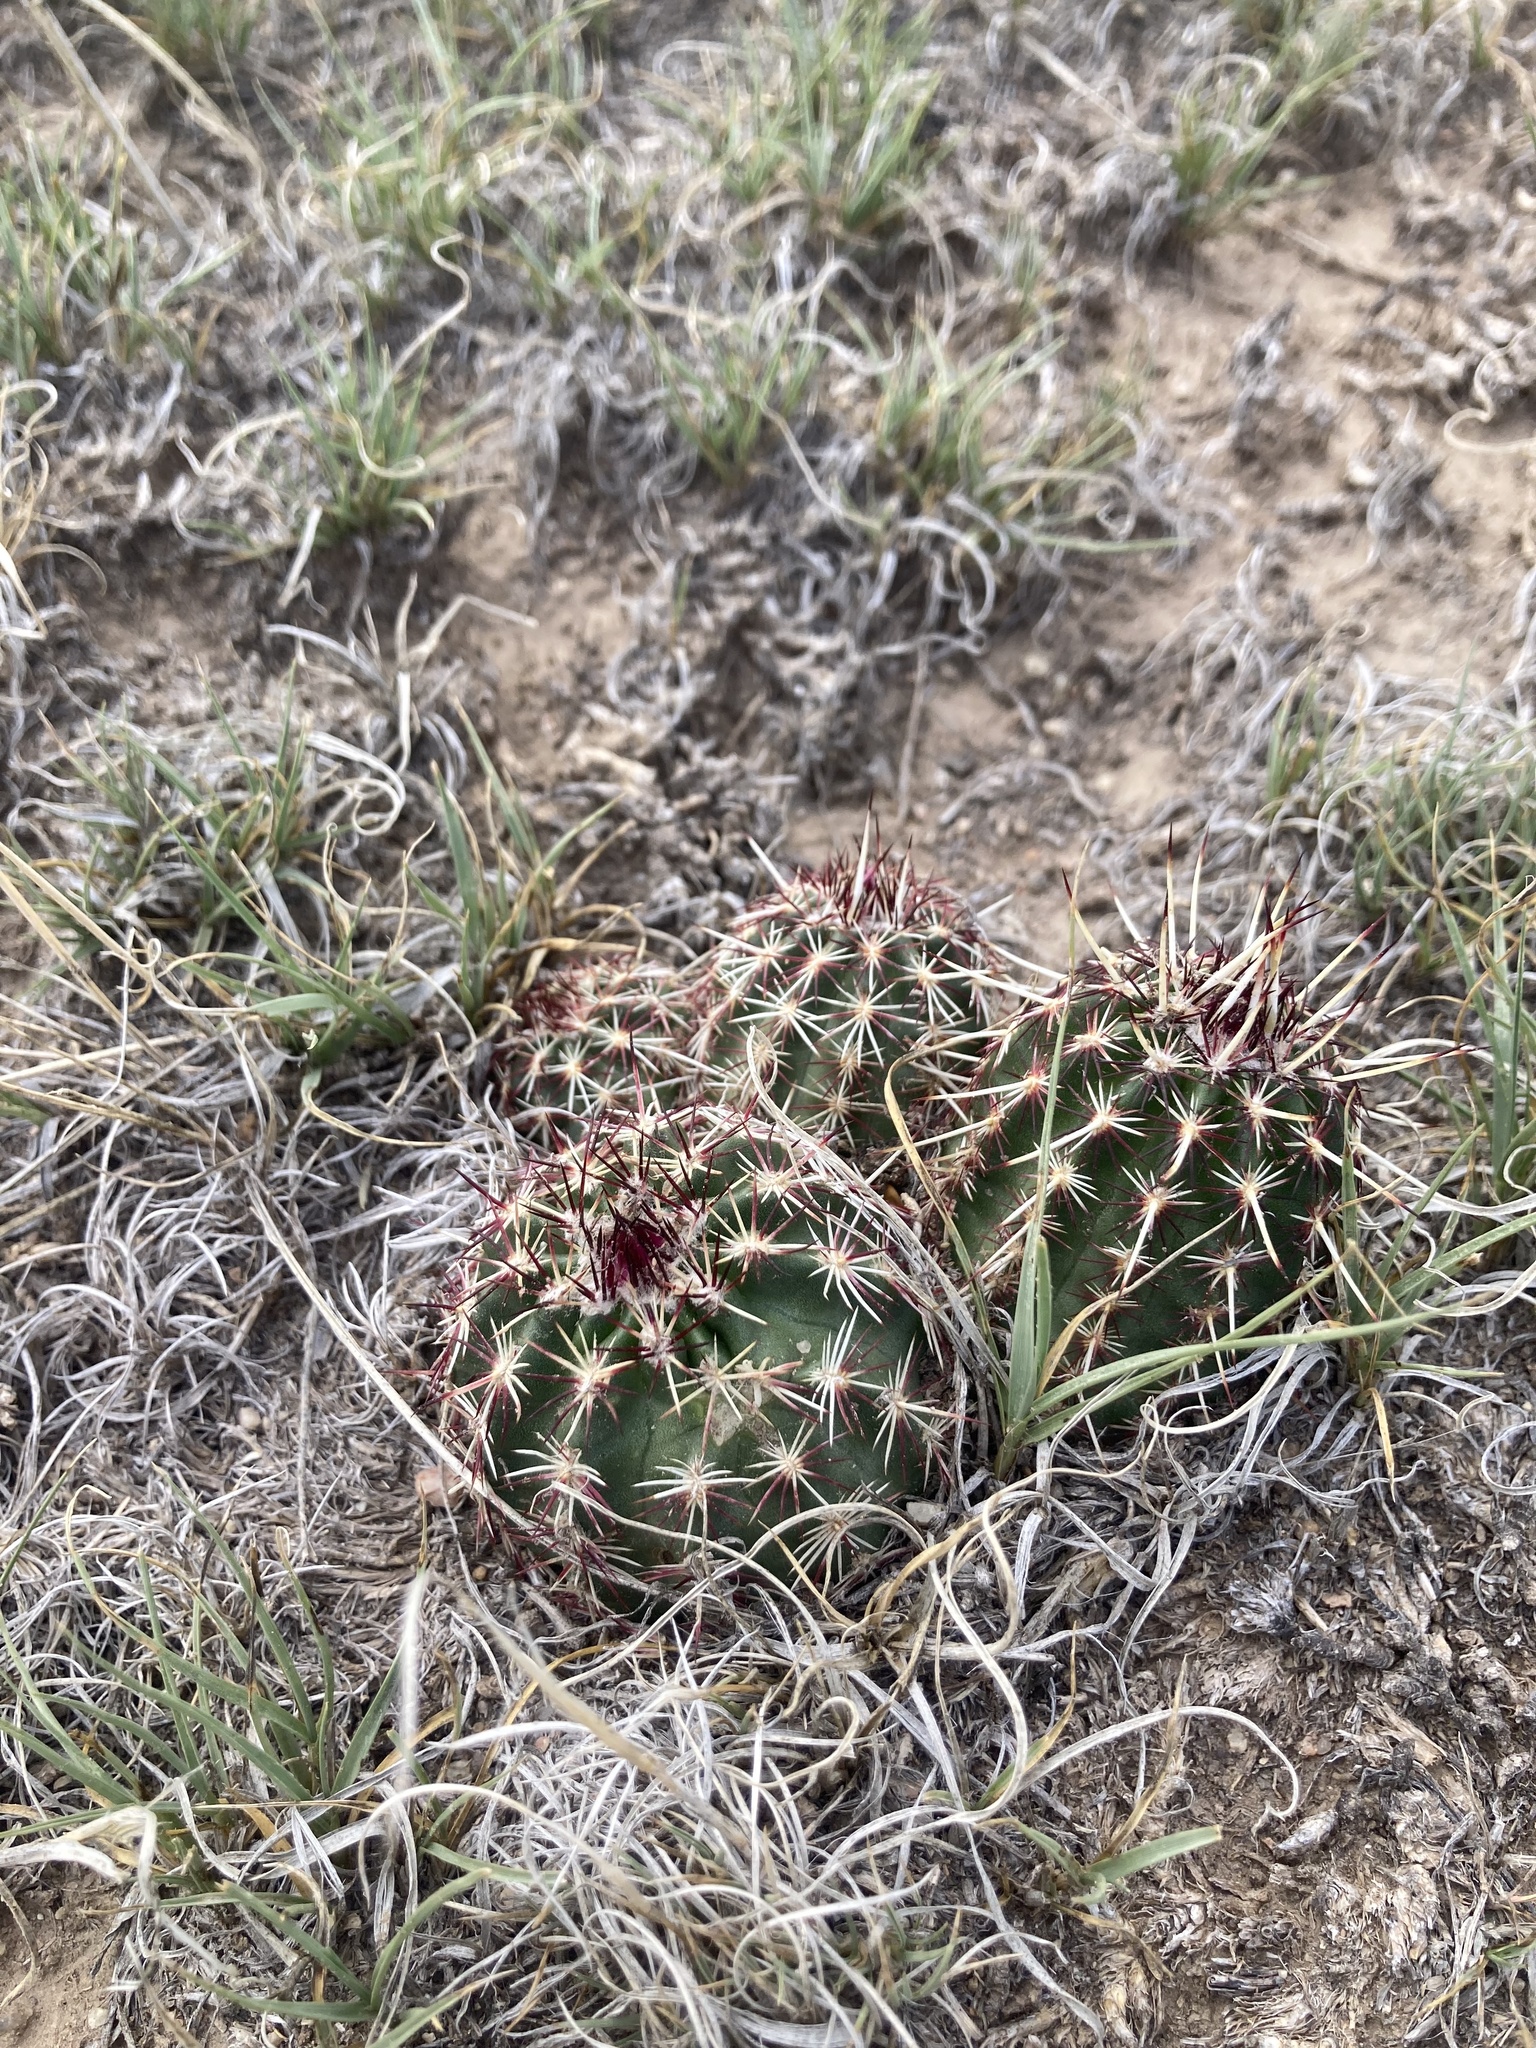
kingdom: Plantae
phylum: Tracheophyta
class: Magnoliopsida
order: Caryophyllales
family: Cactaceae
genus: Echinocereus
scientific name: Echinocereus viridiflorus
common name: Nylon hedgehog cactus
